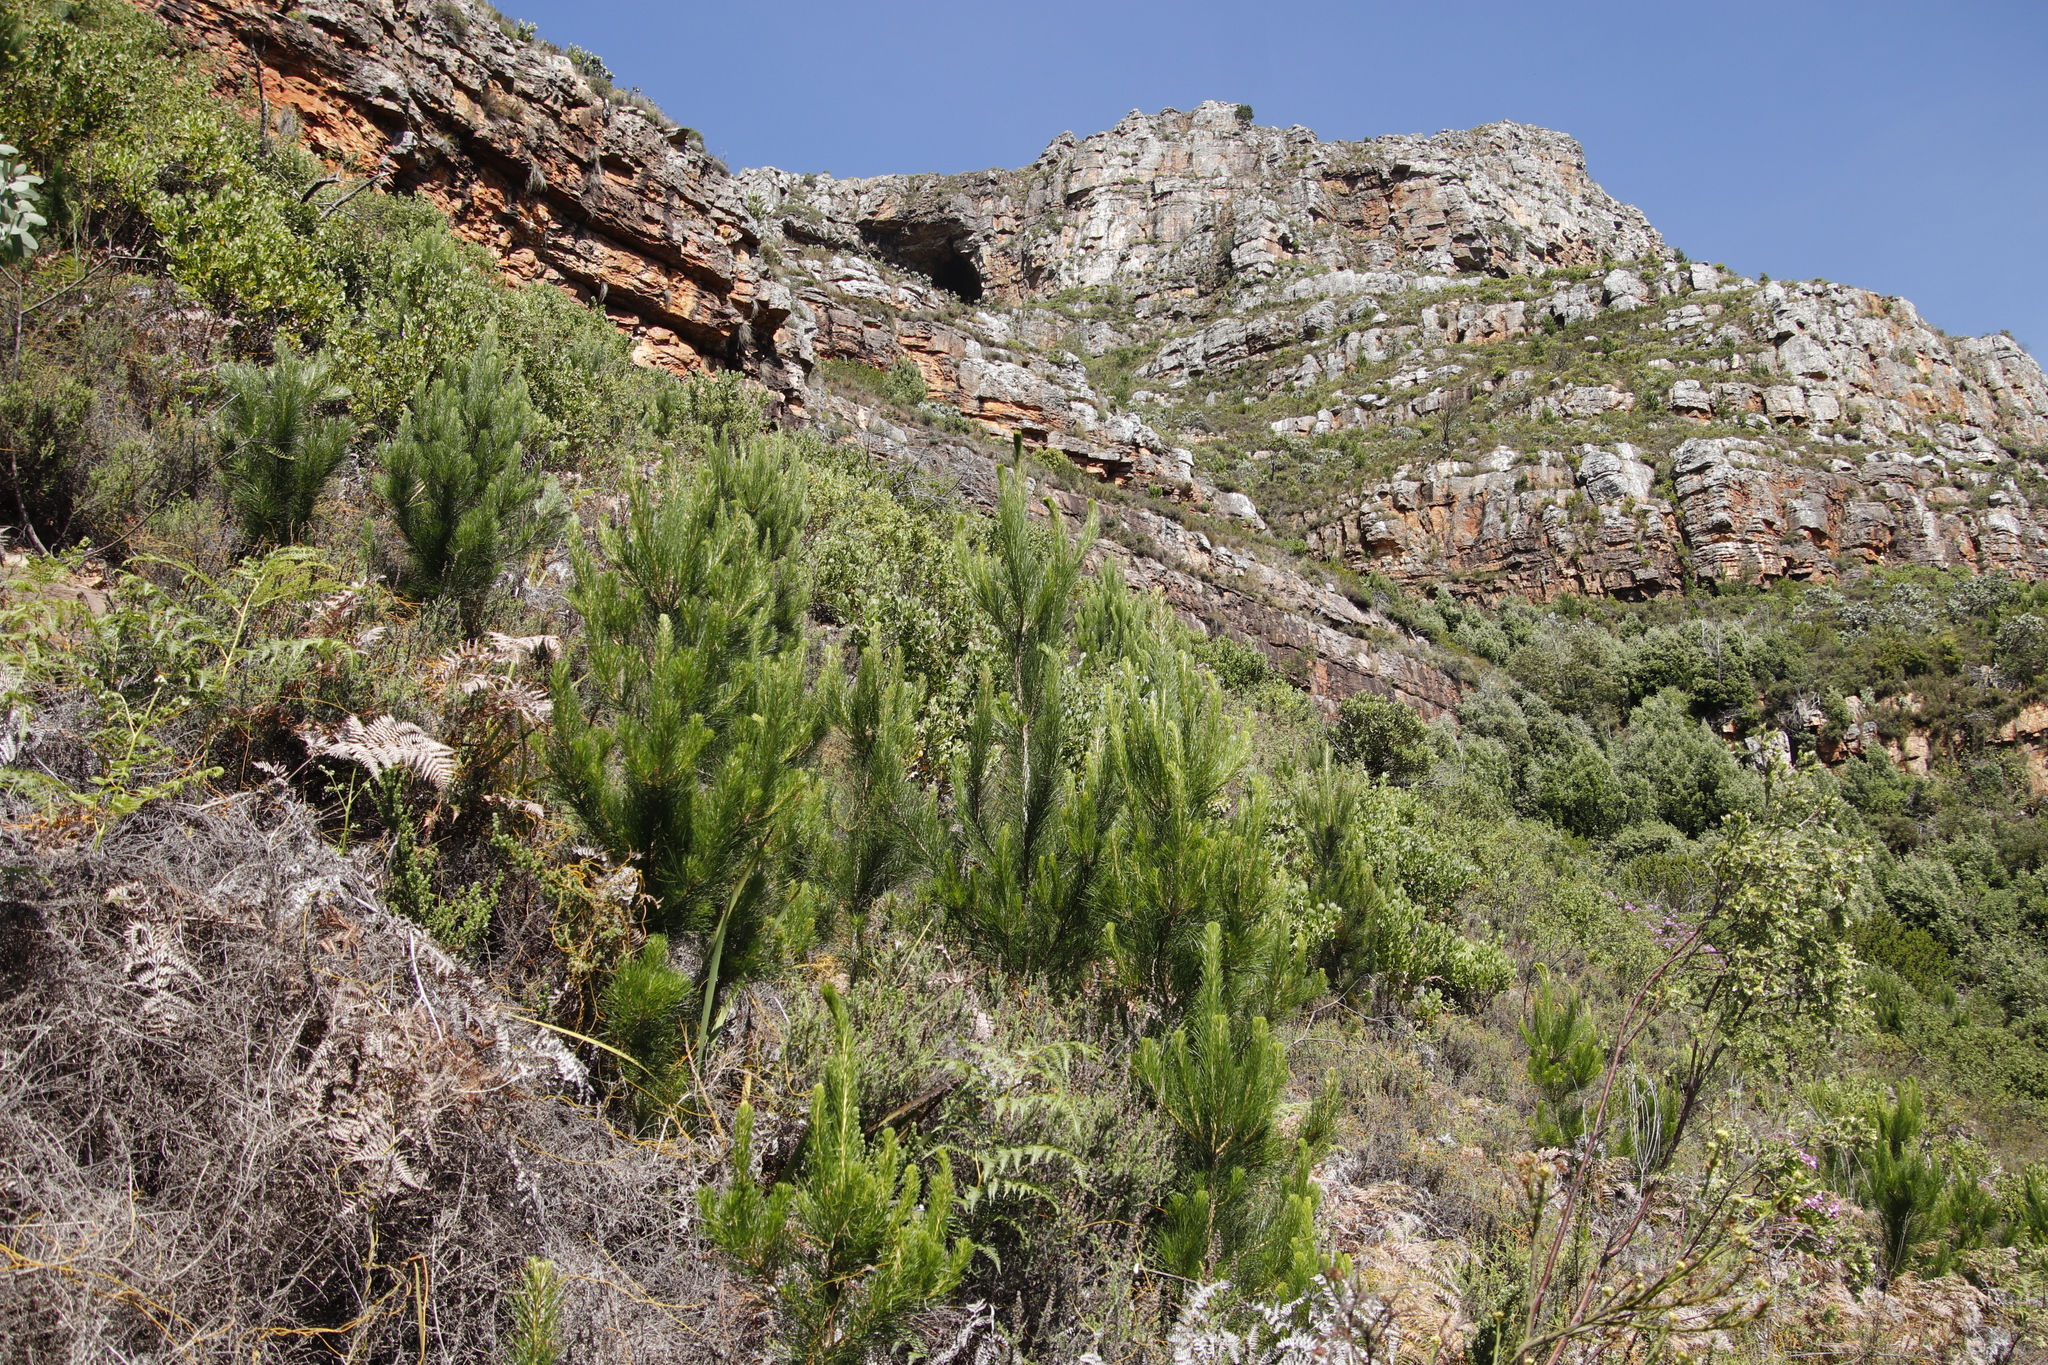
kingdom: Plantae
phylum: Tracheophyta
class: Pinopsida
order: Pinales
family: Pinaceae
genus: Pinus
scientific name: Pinus radiata
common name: Monterey pine
